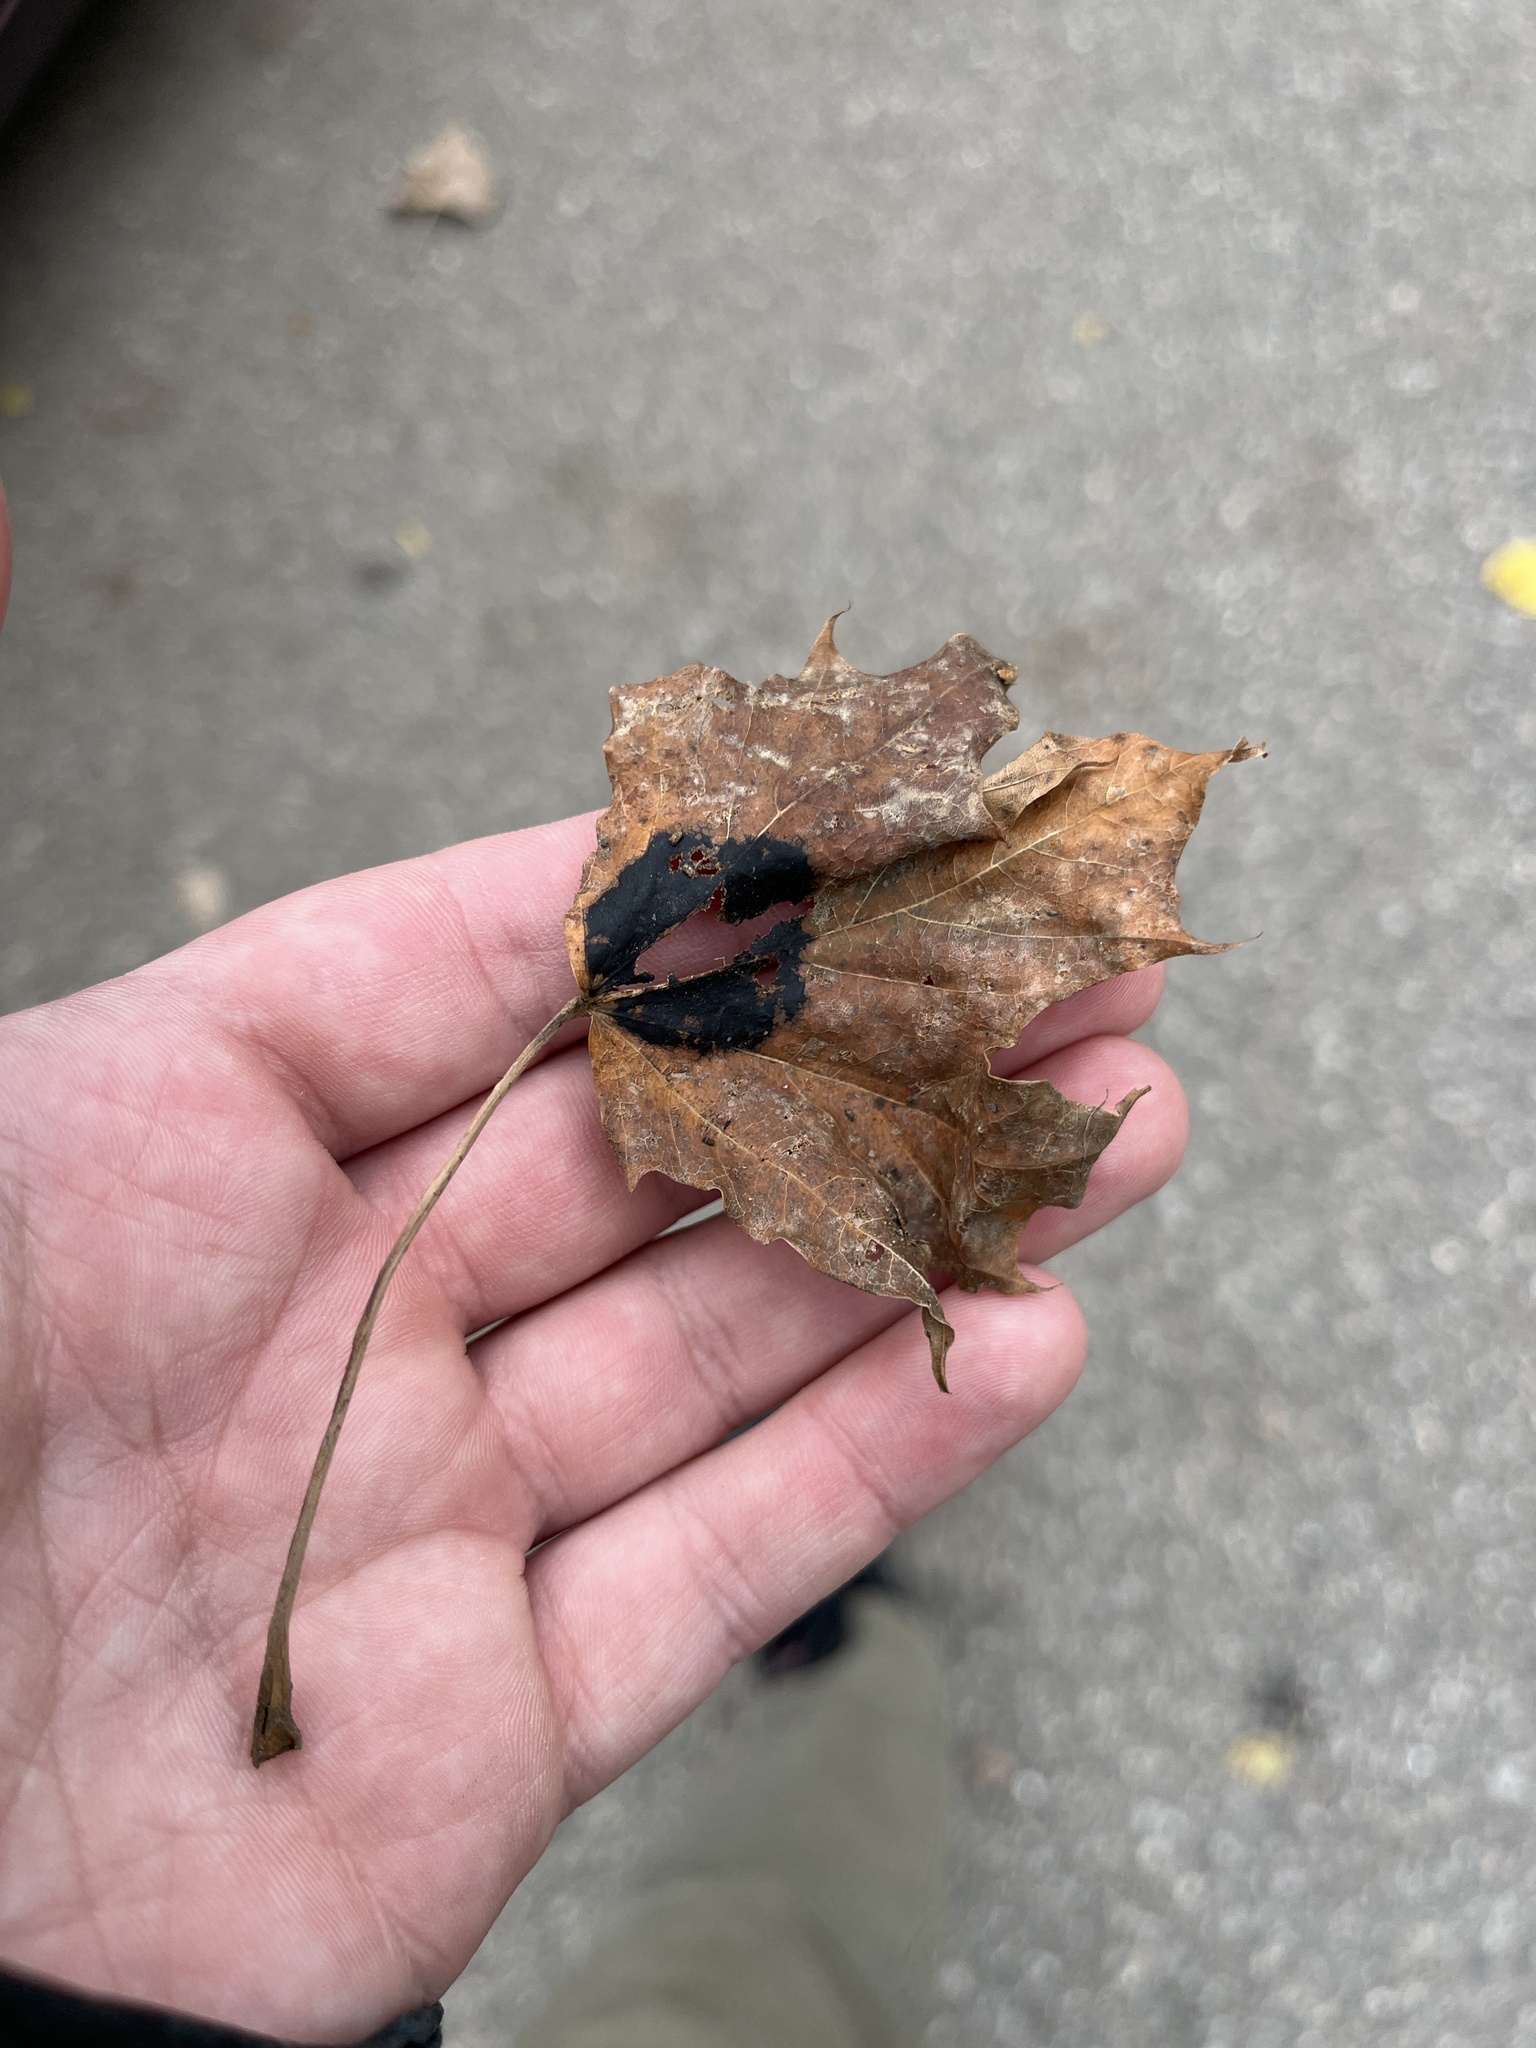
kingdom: Fungi
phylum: Ascomycota
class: Leotiomycetes
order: Rhytismatales
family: Rhytismataceae
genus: Rhytisma
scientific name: Rhytisma acerinum
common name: European tar spot
